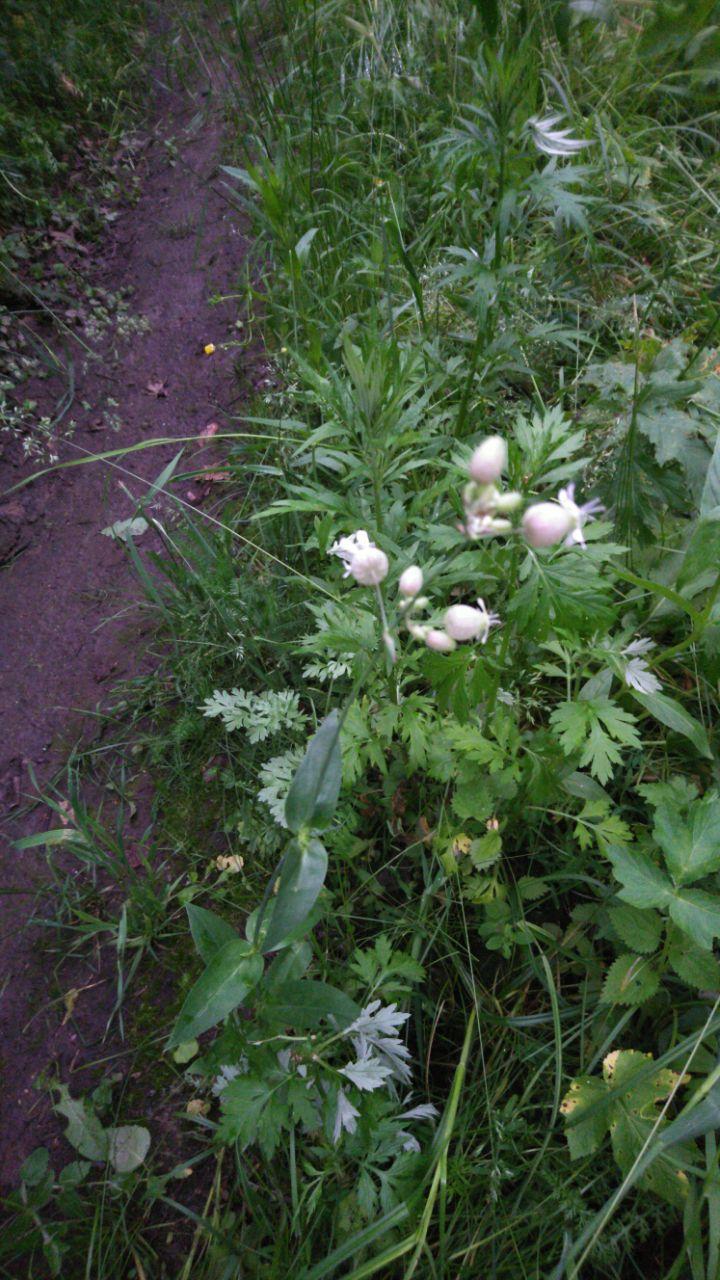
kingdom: Plantae
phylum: Tracheophyta
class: Magnoliopsida
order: Caryophyllales
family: Caryophyllaceae
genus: Silene
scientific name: Silene vulgaris
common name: Bladder campion
